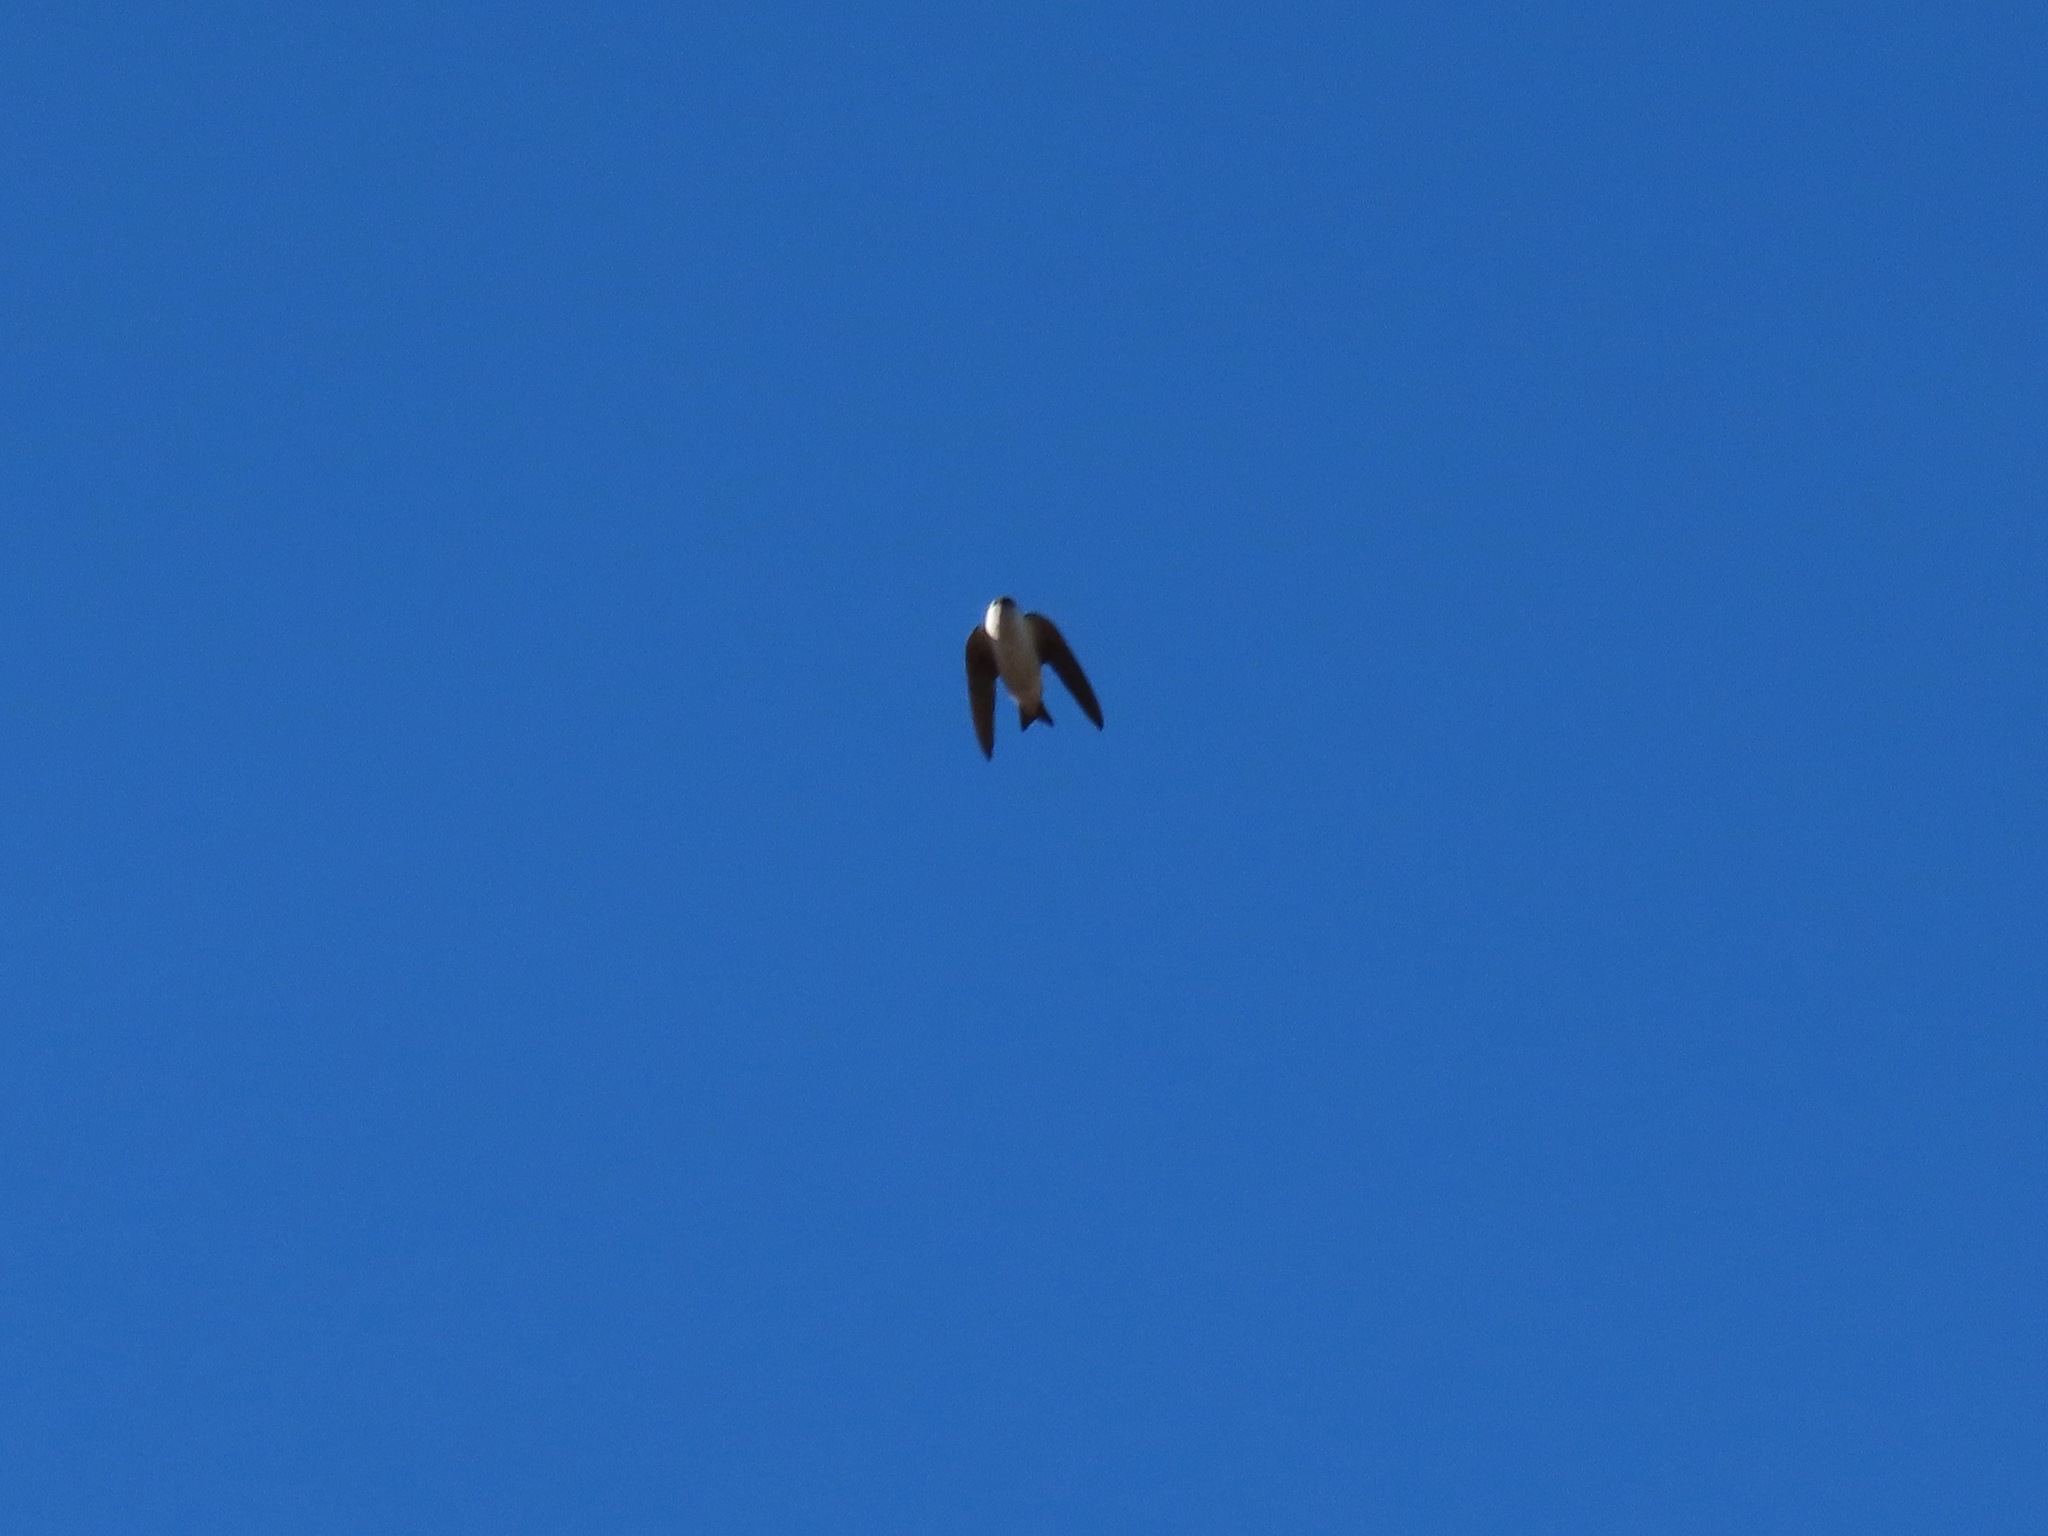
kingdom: Animalia
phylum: Chordata
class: Aves
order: Passeriformes
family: Hirundinidae
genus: Tachycineta
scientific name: Tachycineta thalassina
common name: Violet-green swallow
